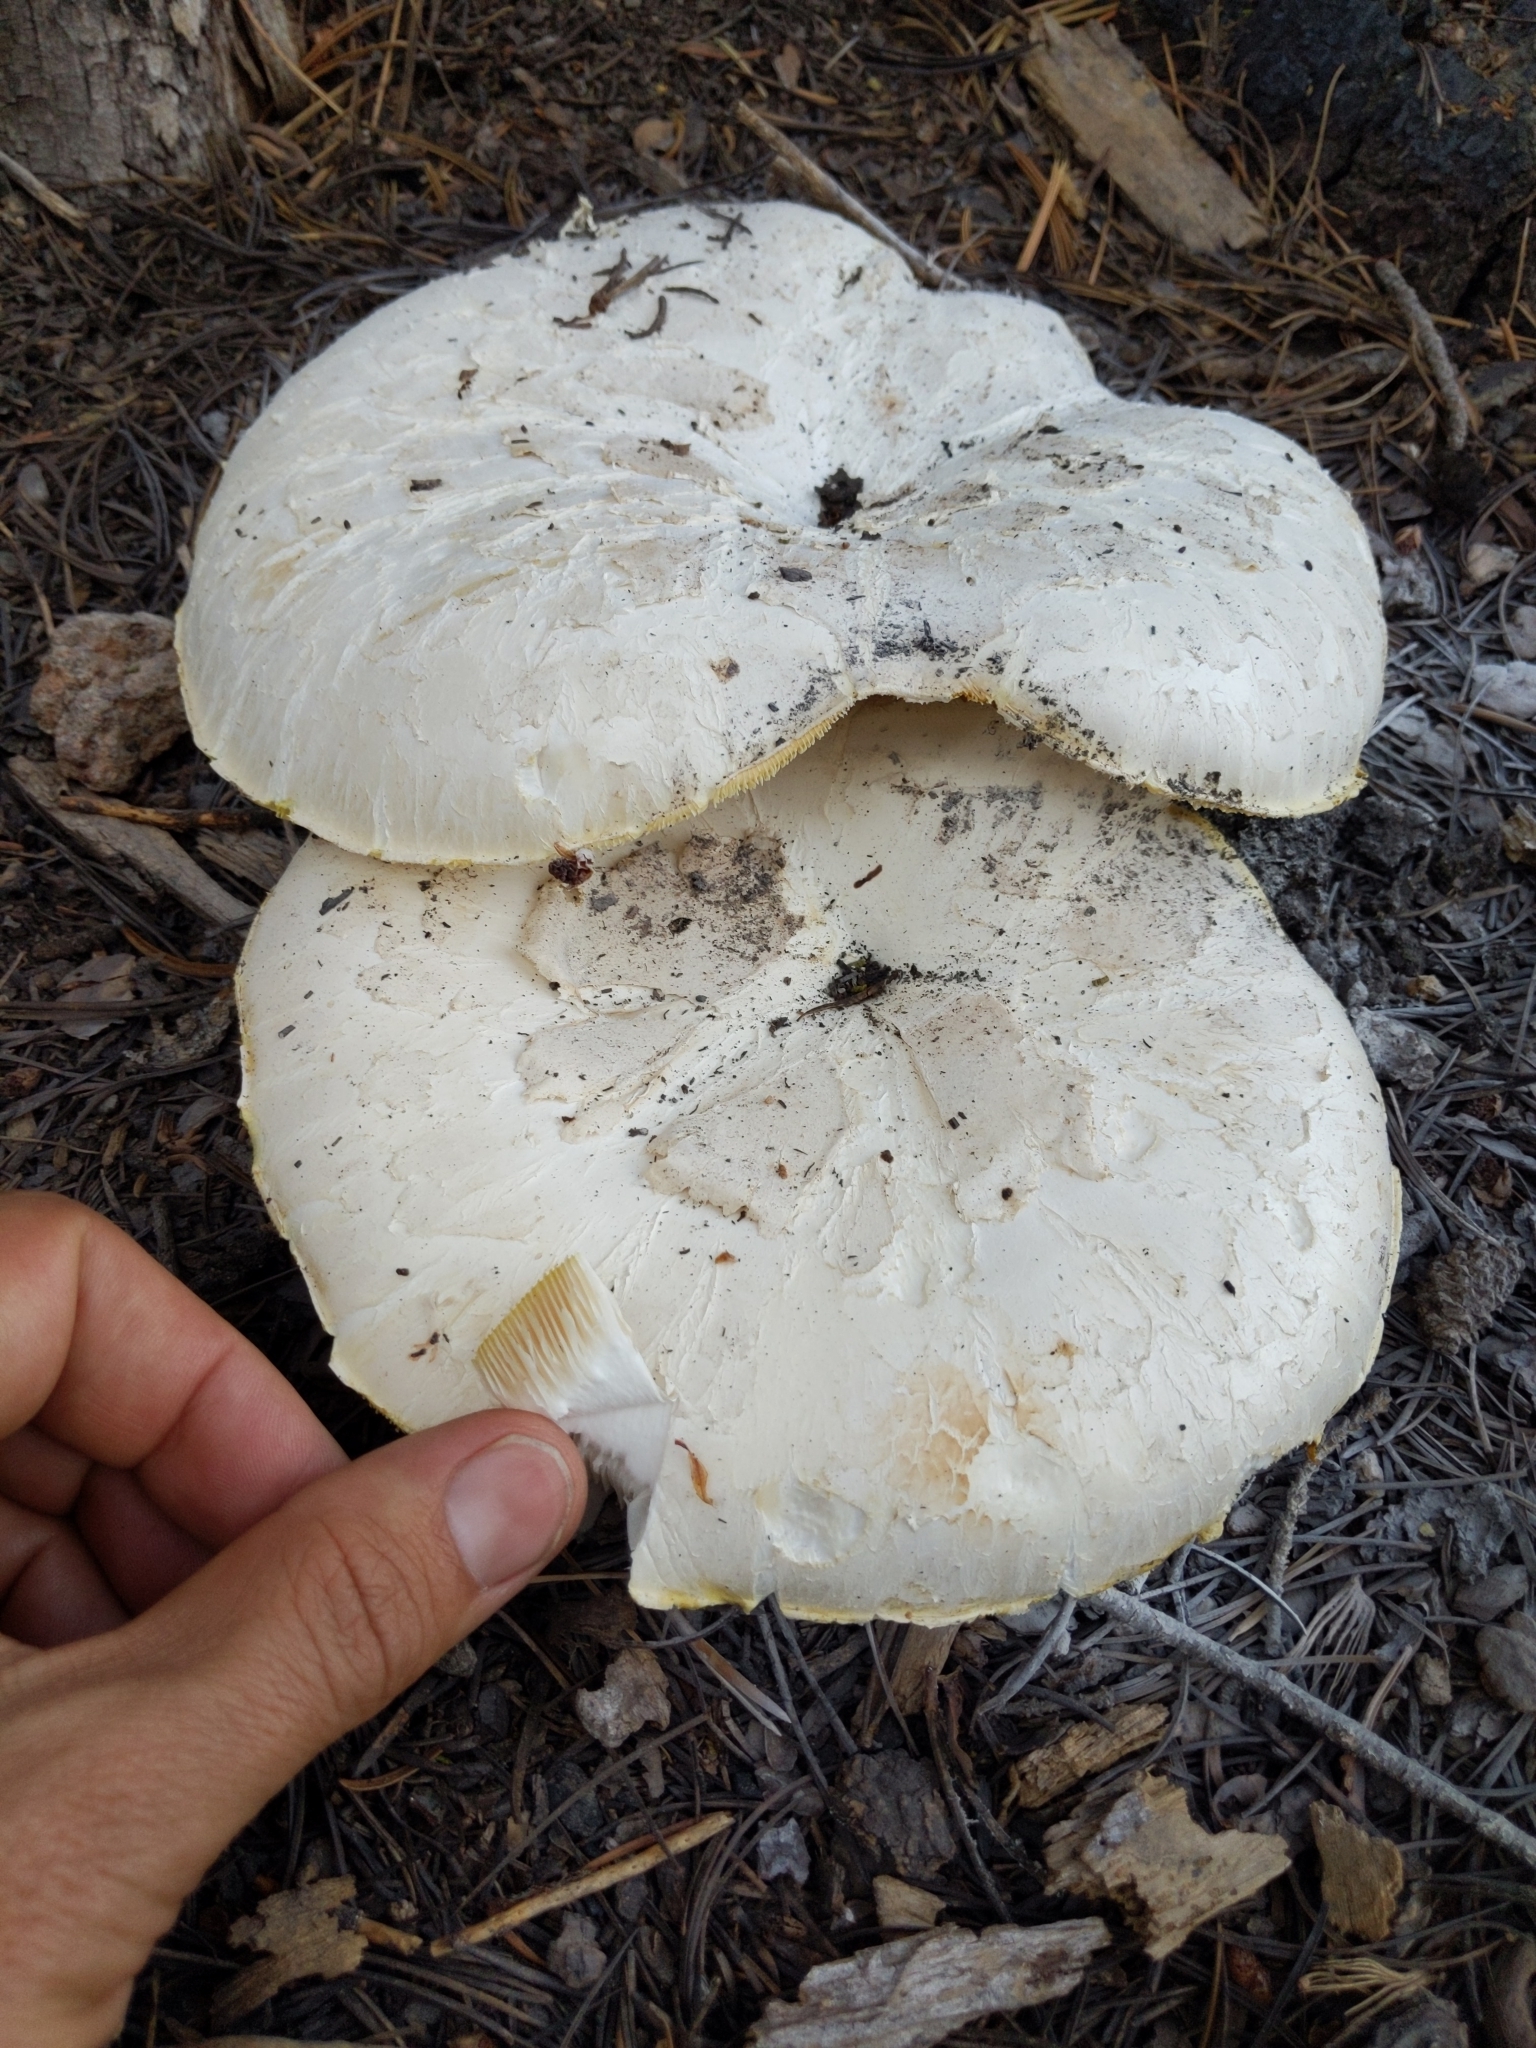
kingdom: Fungi
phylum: Basidiomycota
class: Agaricomycetes
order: Gloeophyllales
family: Gloeophyllaceae
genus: Neolentinus
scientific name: Neolentinus ponderosus
